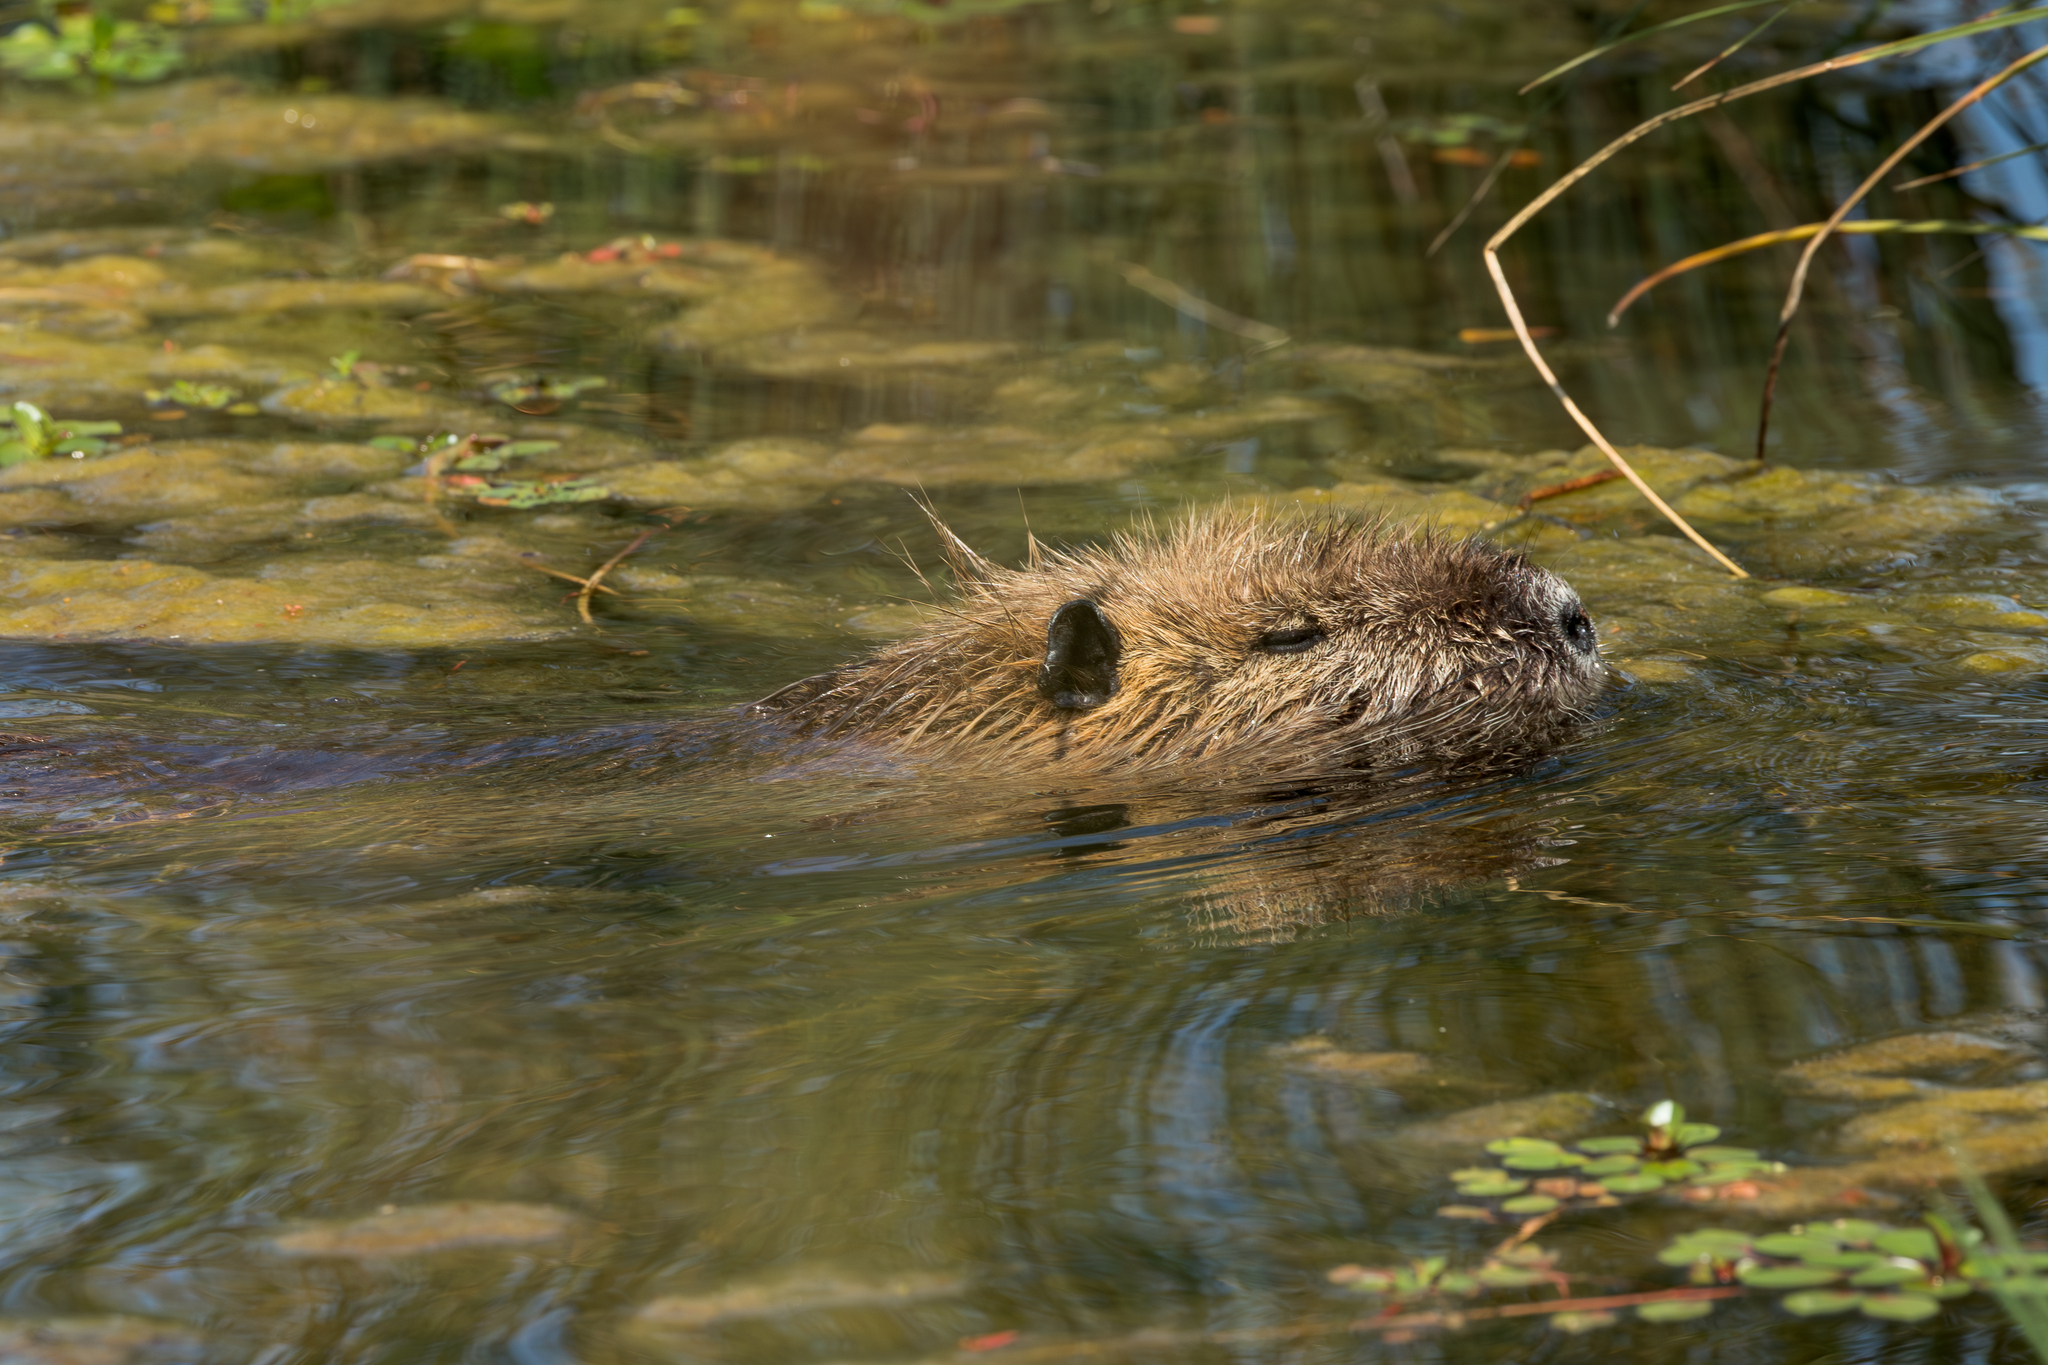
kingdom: Animalia
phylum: Chordata
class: Mammalia
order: Rodentia
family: Myocastoridae
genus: Myocastor
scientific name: Myocastor coypus
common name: Coypu
